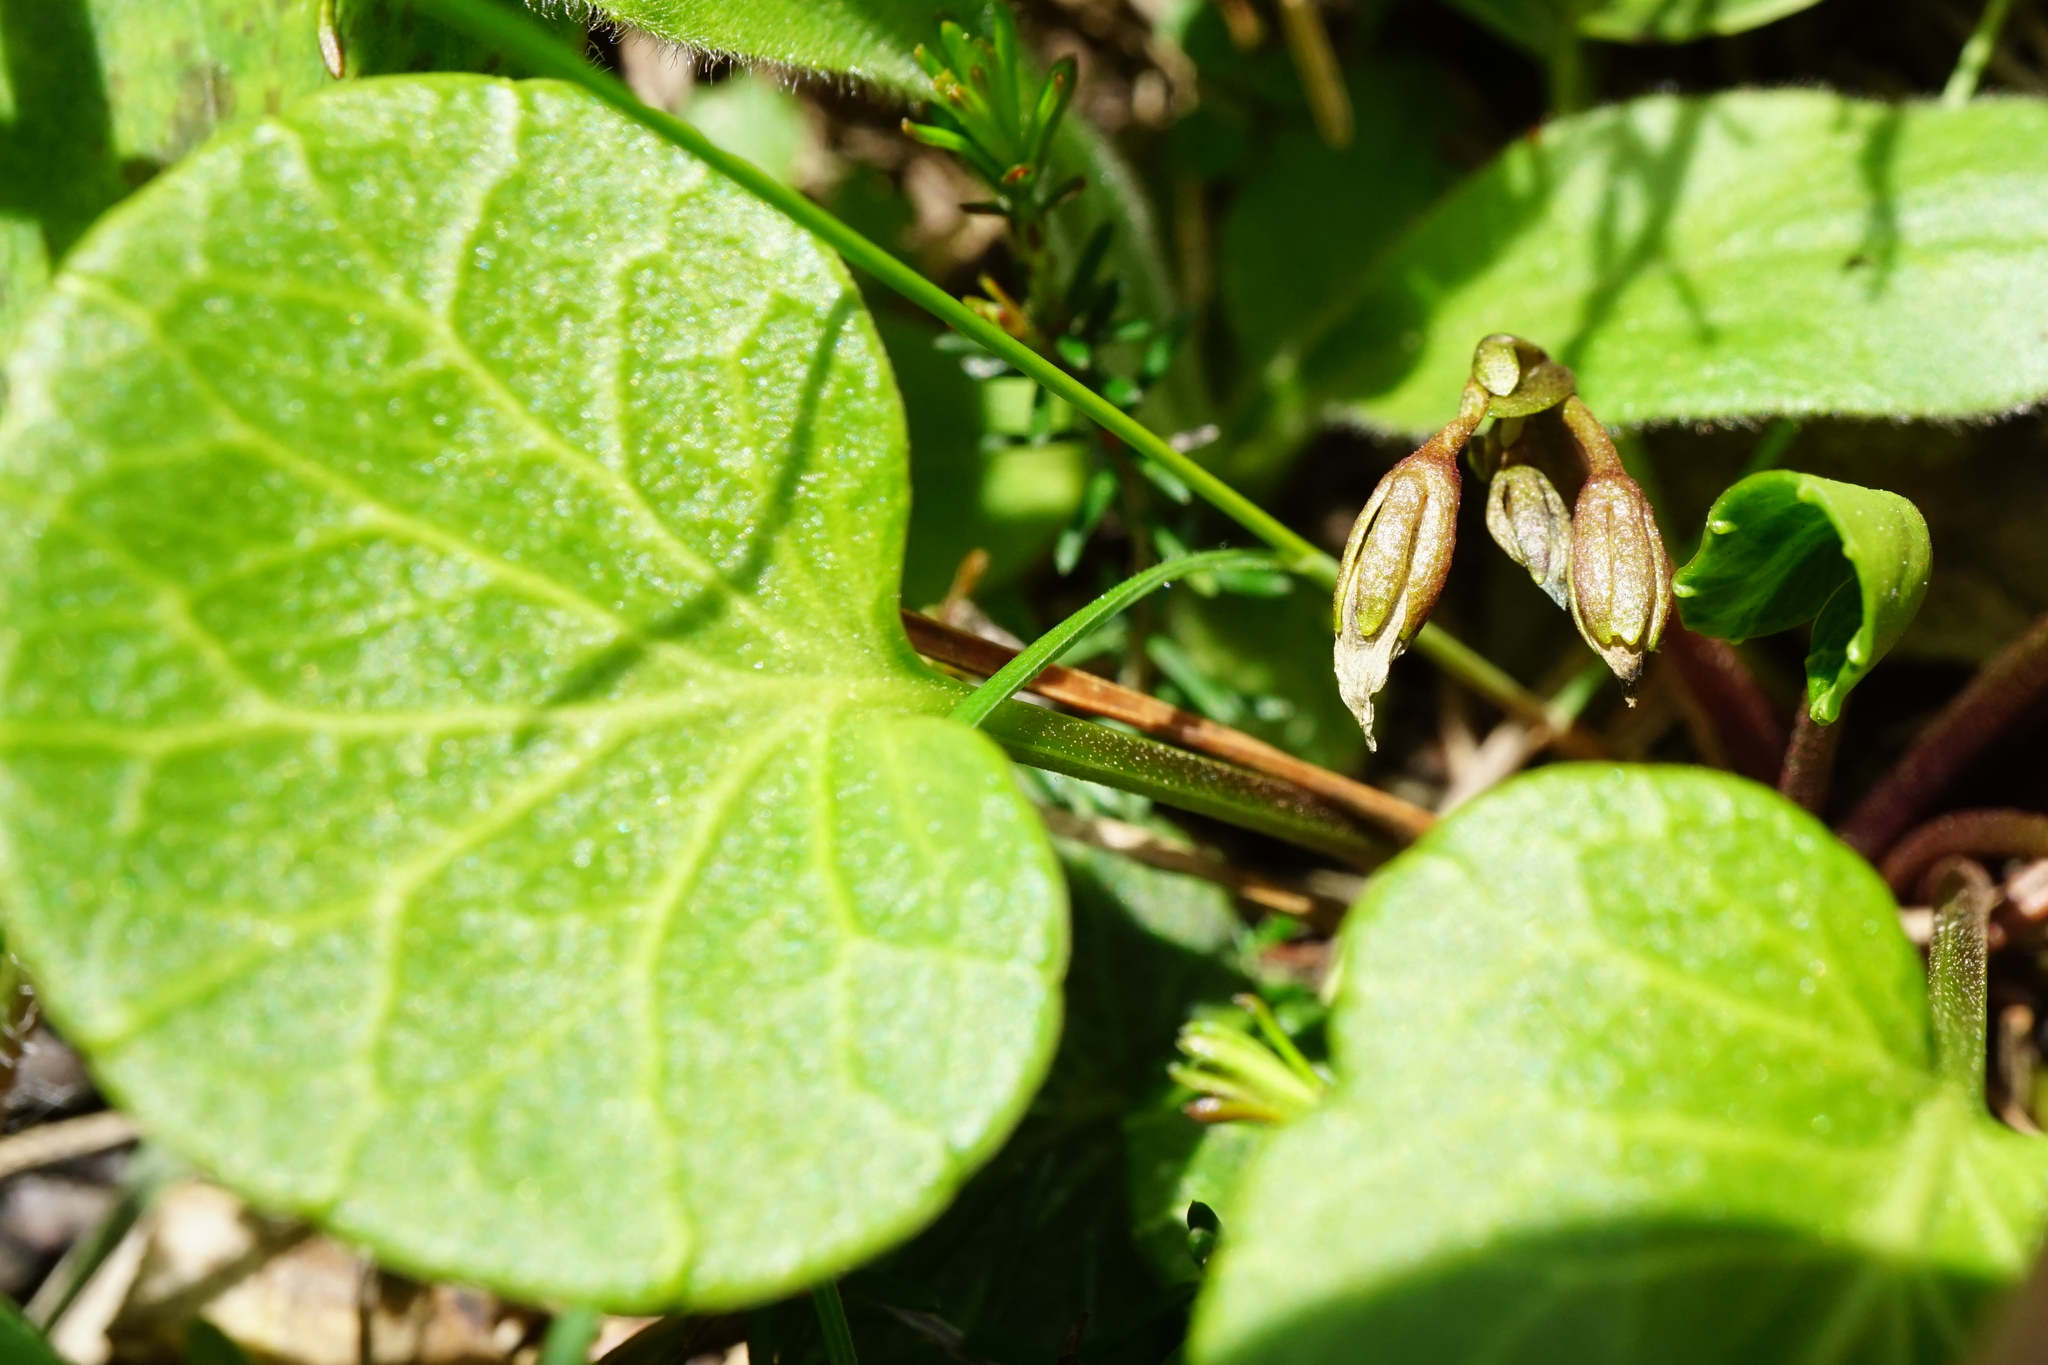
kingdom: Plantae
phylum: Tracheophyta
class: Magnoliopsida
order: Ericales
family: Primulaceae
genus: Soldanella
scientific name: Soldanella alpina
